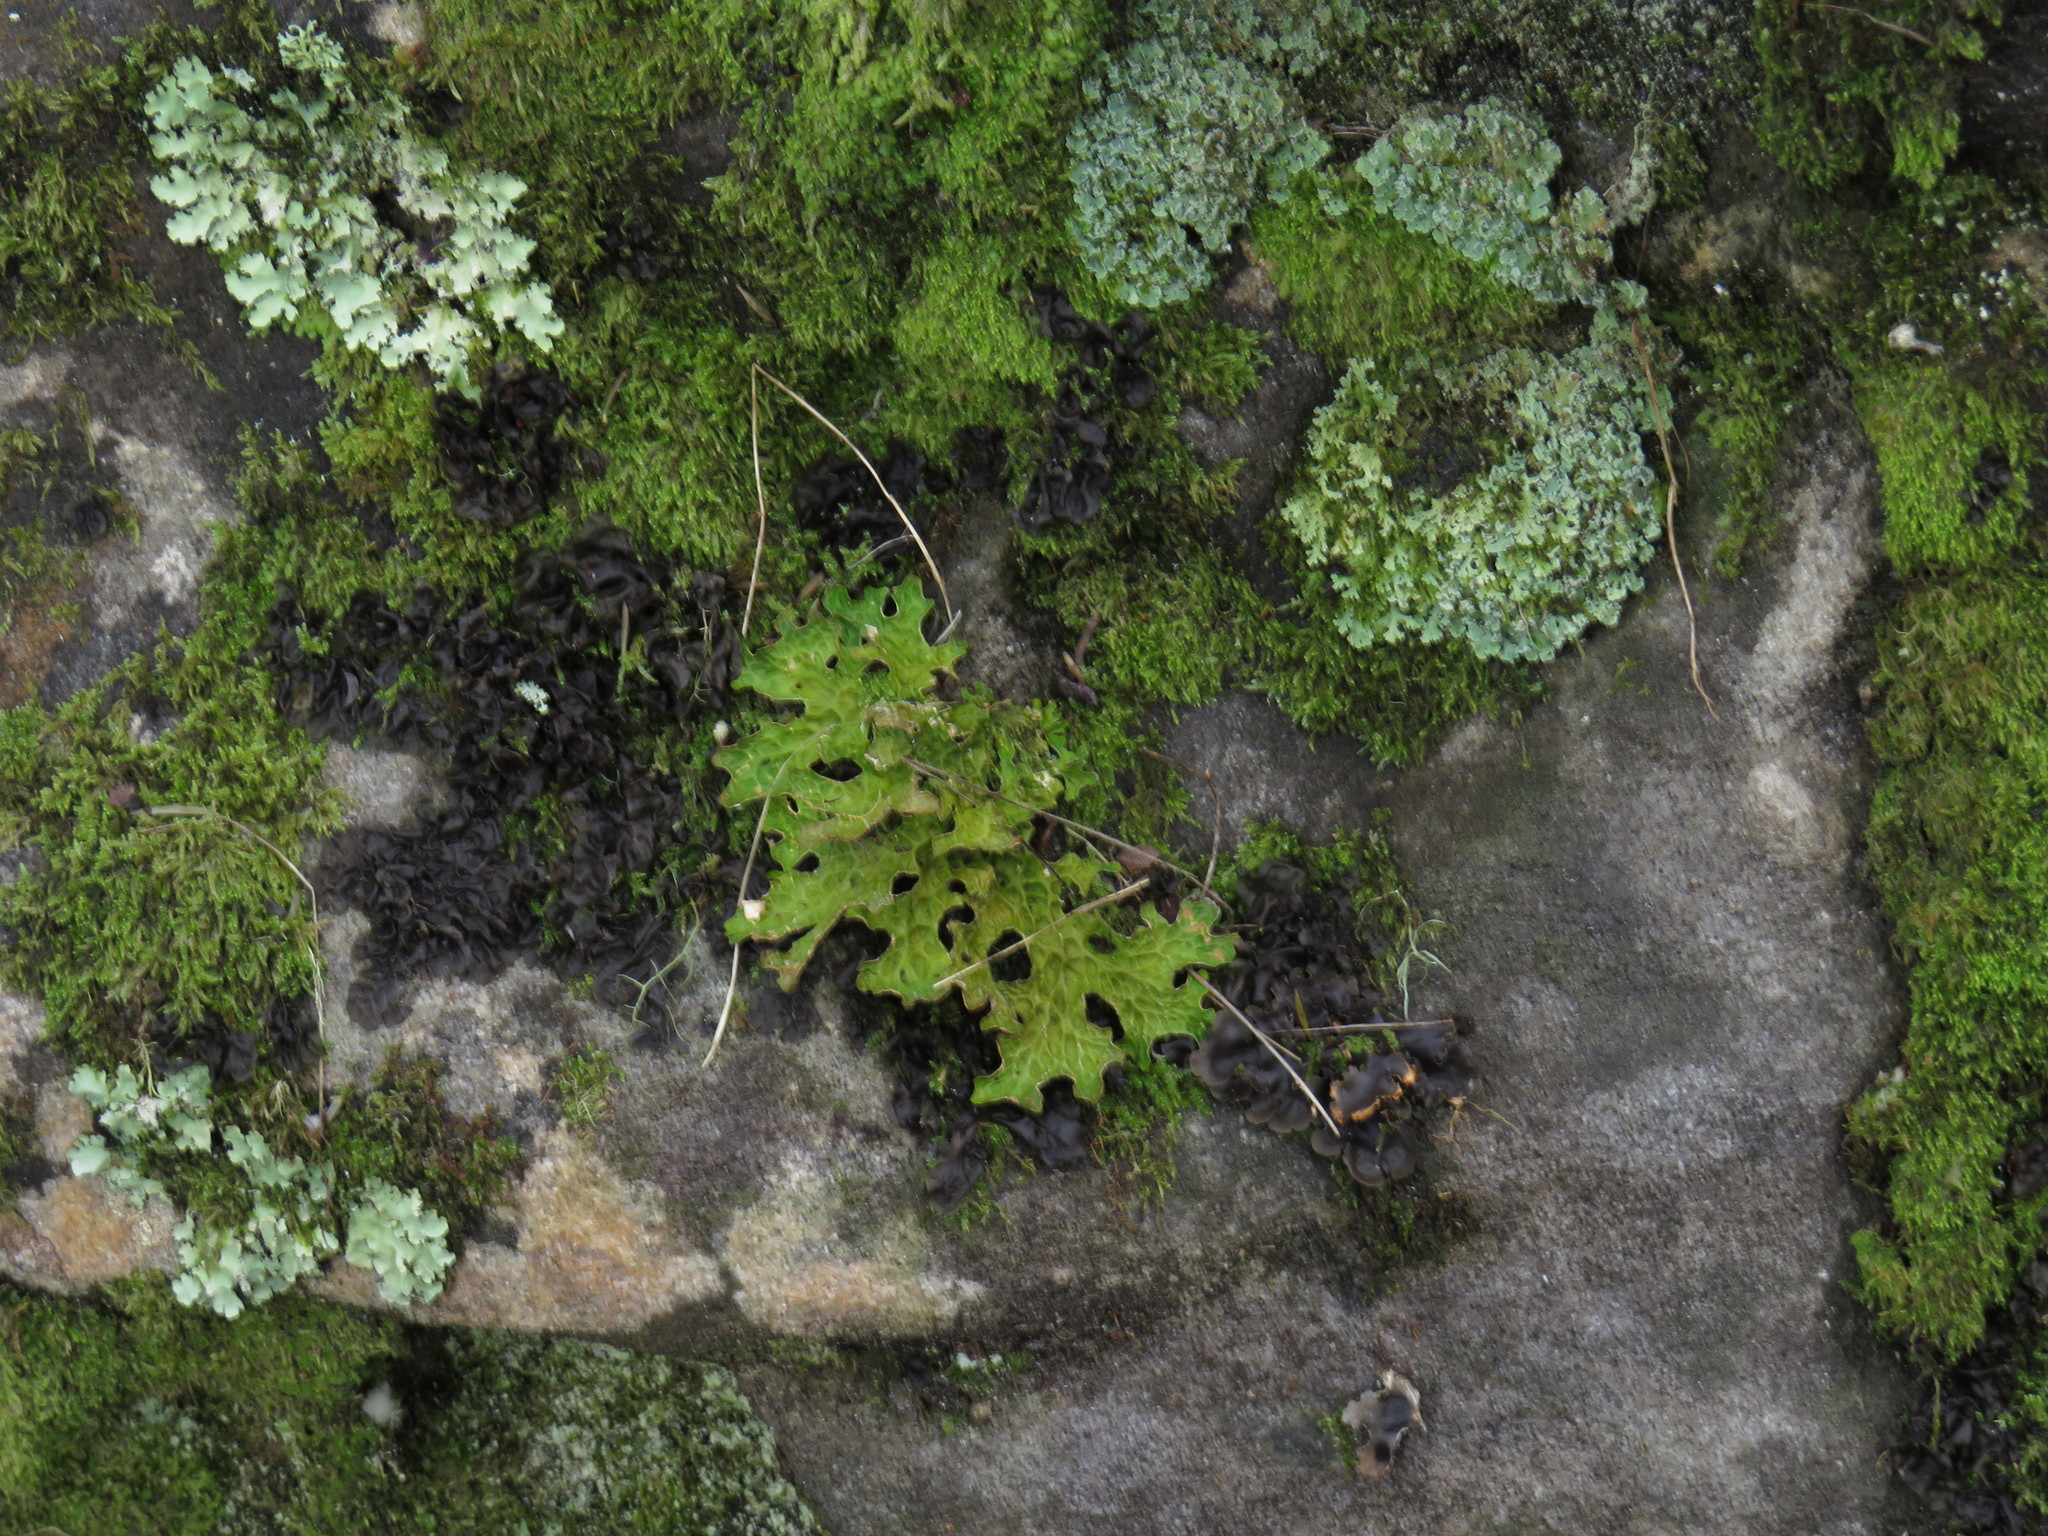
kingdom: Fungi
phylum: Ascomycota
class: Lecanoromycetes
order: Peltigerales
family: Lobariaceae
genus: Lobaria
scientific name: Lobaria pulmonaria
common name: Lungwort
